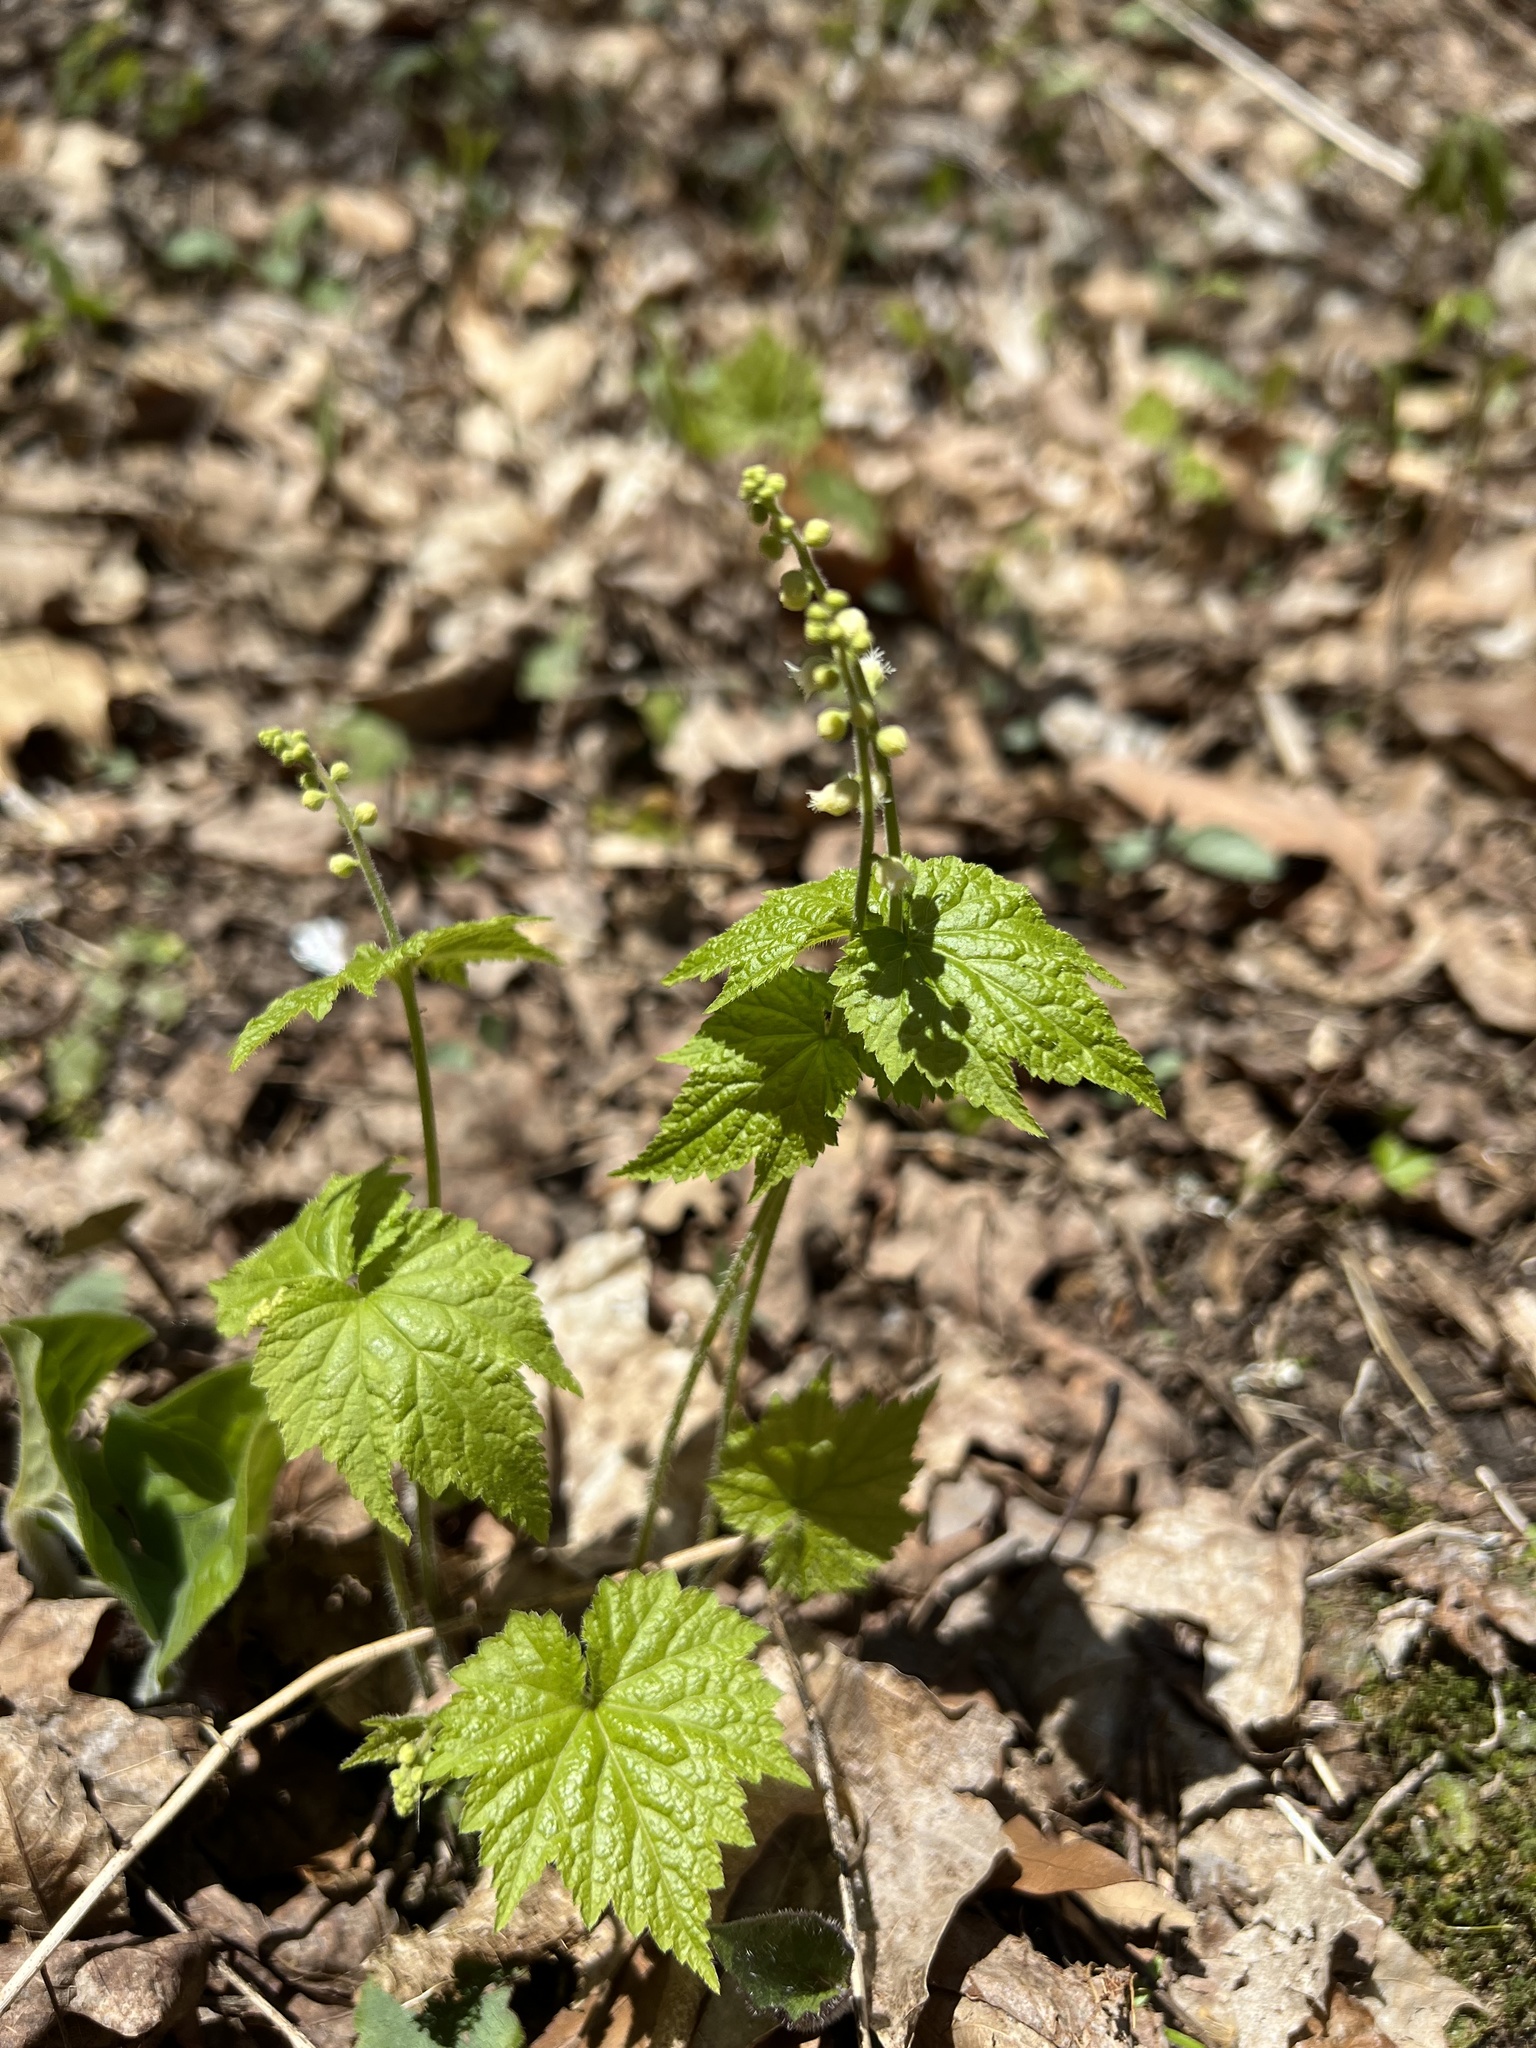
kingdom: Plantae
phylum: Tracheophyta
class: Magnoliopsida
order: Saxifragales
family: Saxifragaceae
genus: Mitella
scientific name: Mitella diphylla
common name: Coolwort
